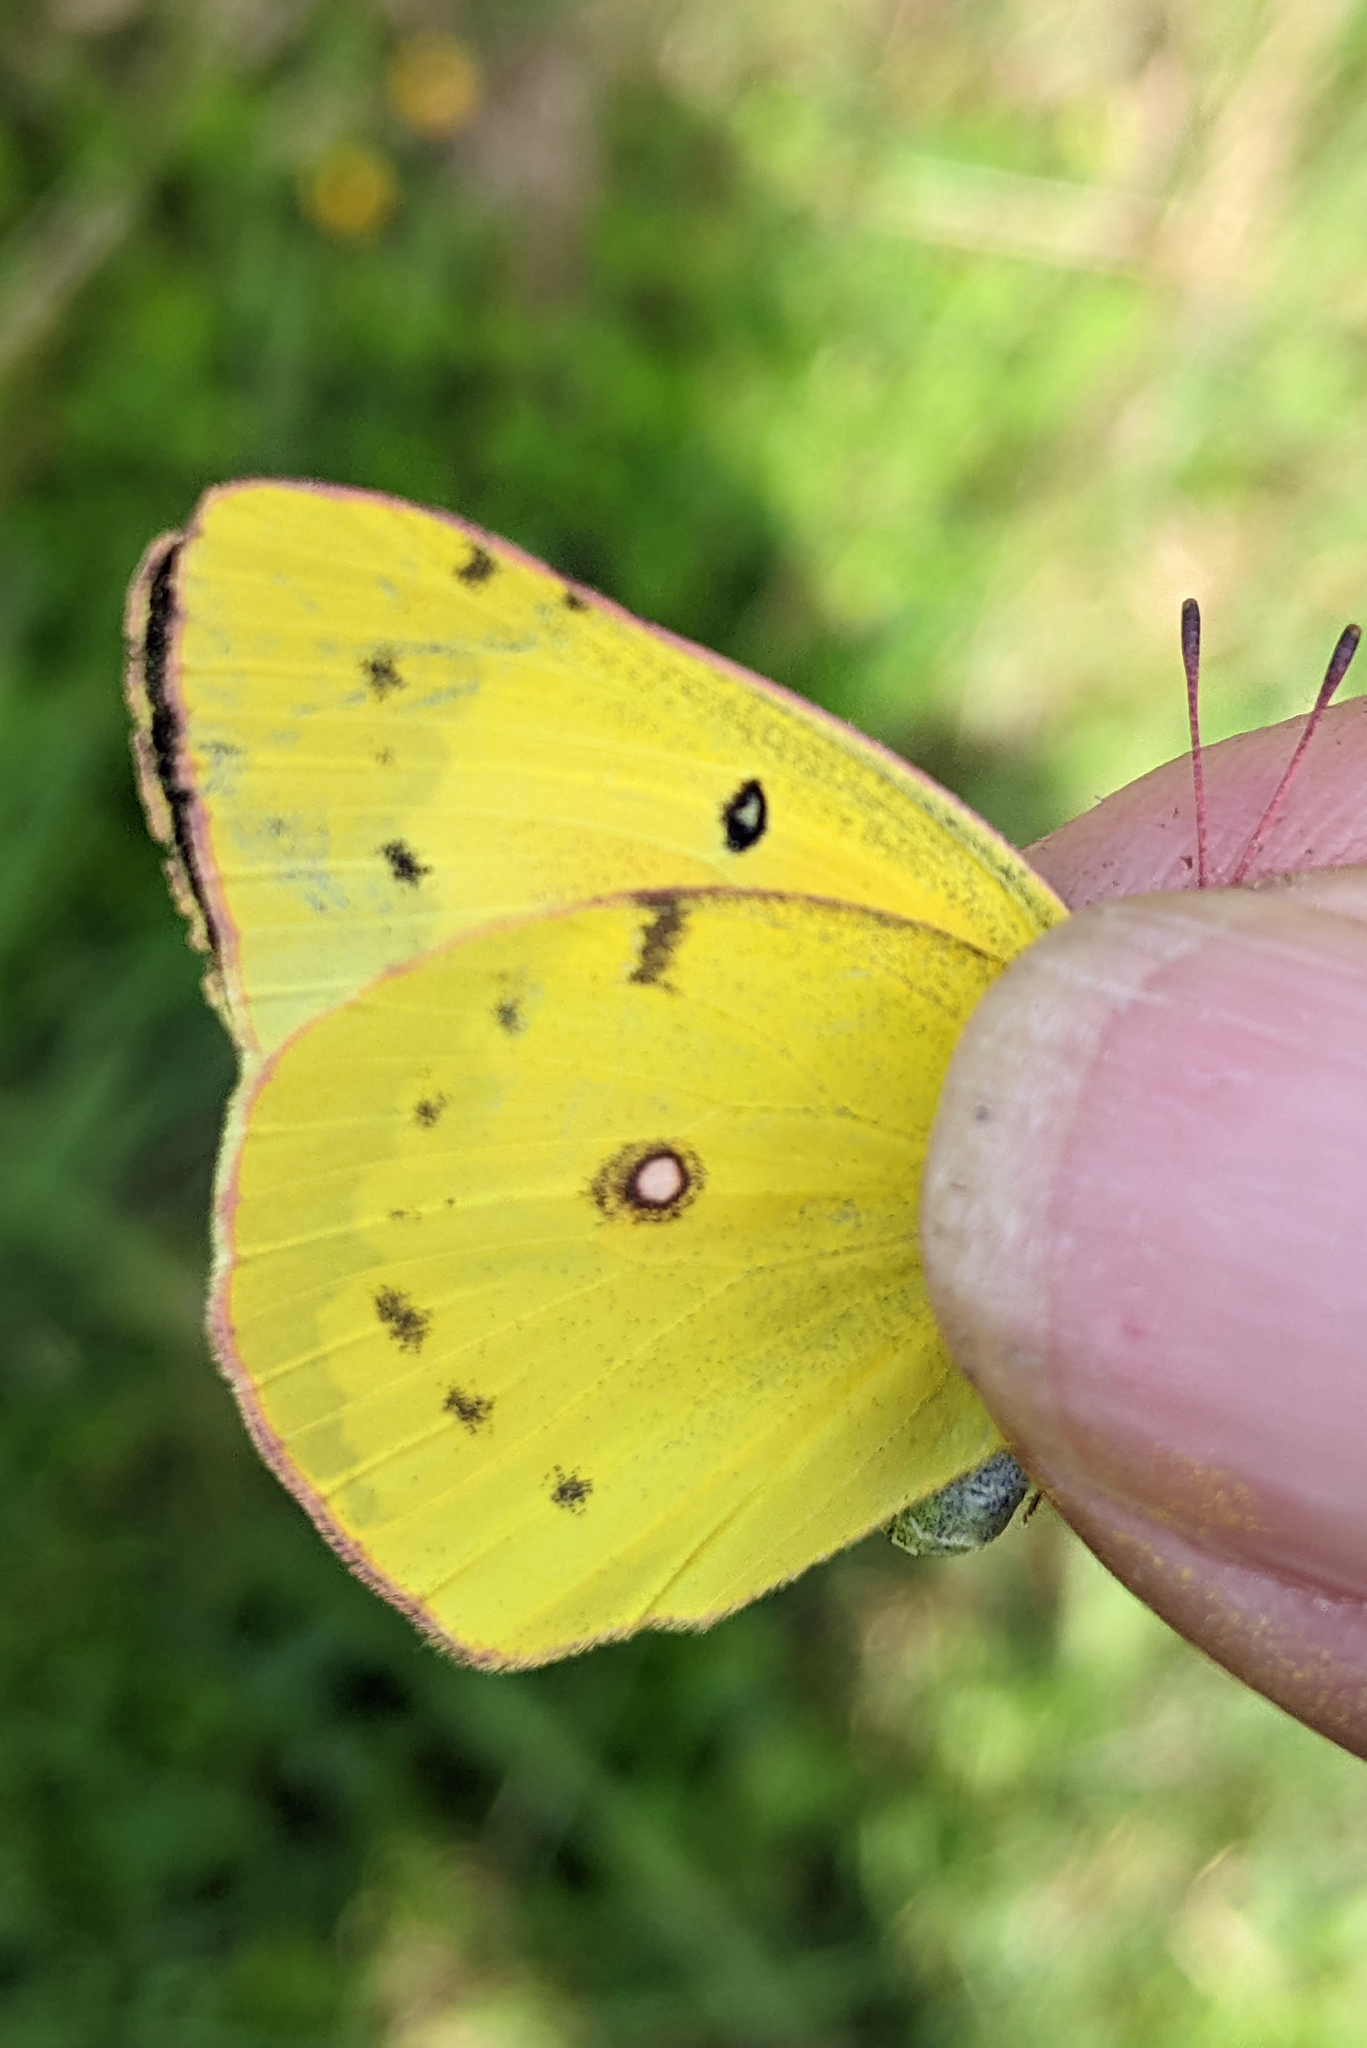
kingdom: Animalia
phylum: Arthropoda
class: Insecta
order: Lepidoptera
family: Pieridae
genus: Colias
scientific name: Colias philodice
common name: Clouded sulphur
